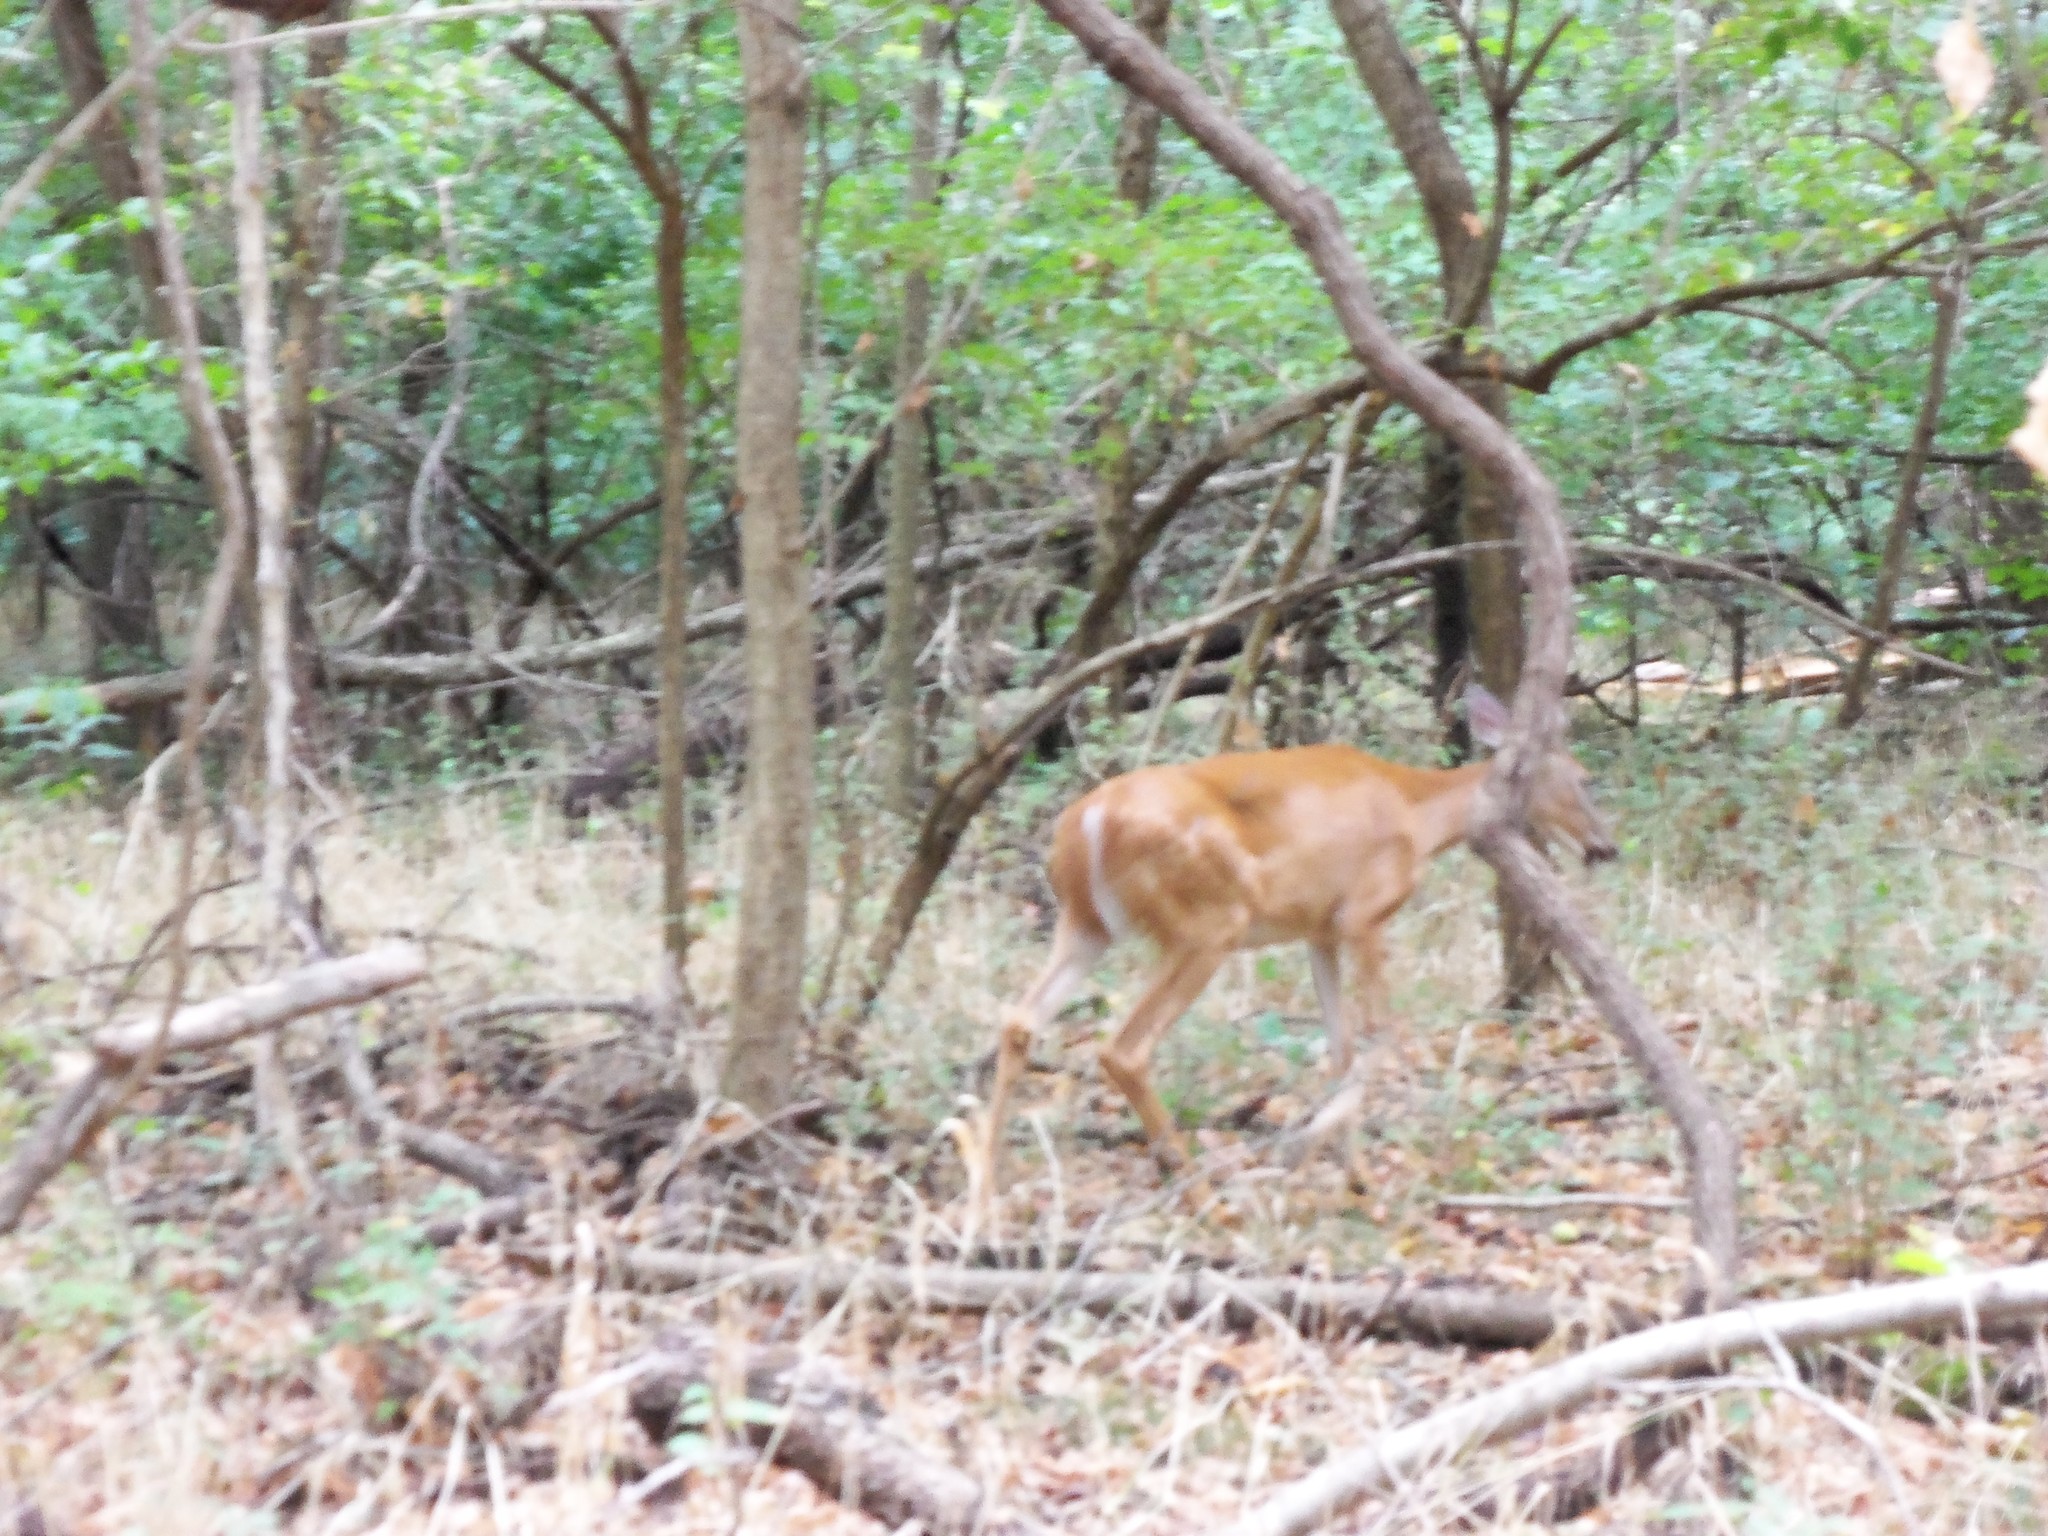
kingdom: Animalia
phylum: Chordata
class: Mammalia
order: Artiodactyla
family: Cervidae
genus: Odocoileus
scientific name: Odocoileus virginianus
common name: White-tailed deer
